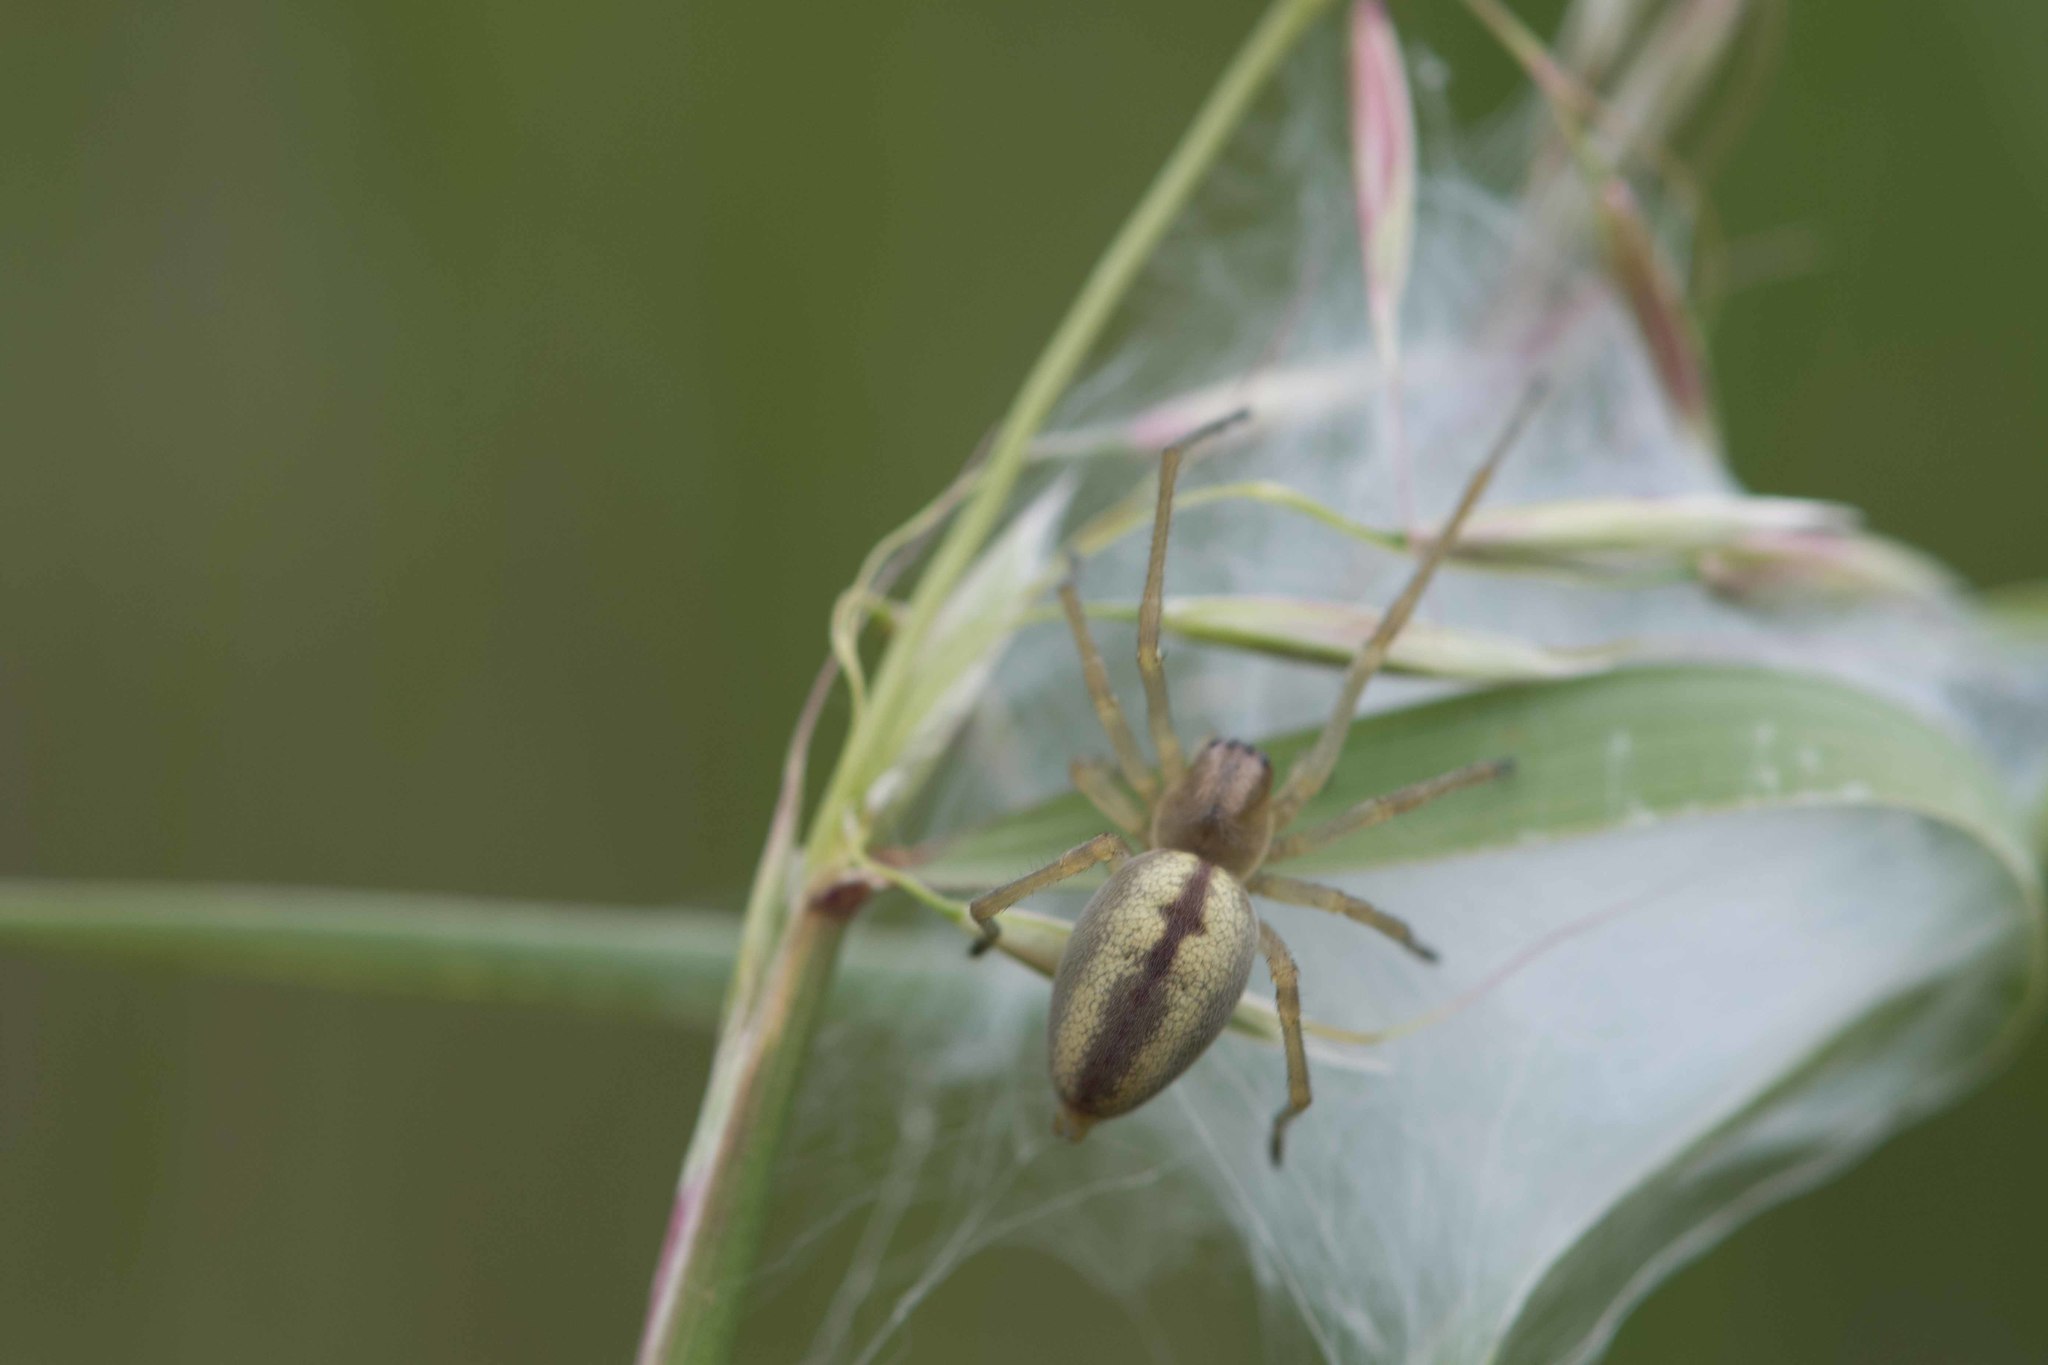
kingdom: Animalia
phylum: Arthropoda
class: Arachnida
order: Araneae
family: Cheiracanthiidae
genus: Cheiracanthium
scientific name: Cheiracanthium
